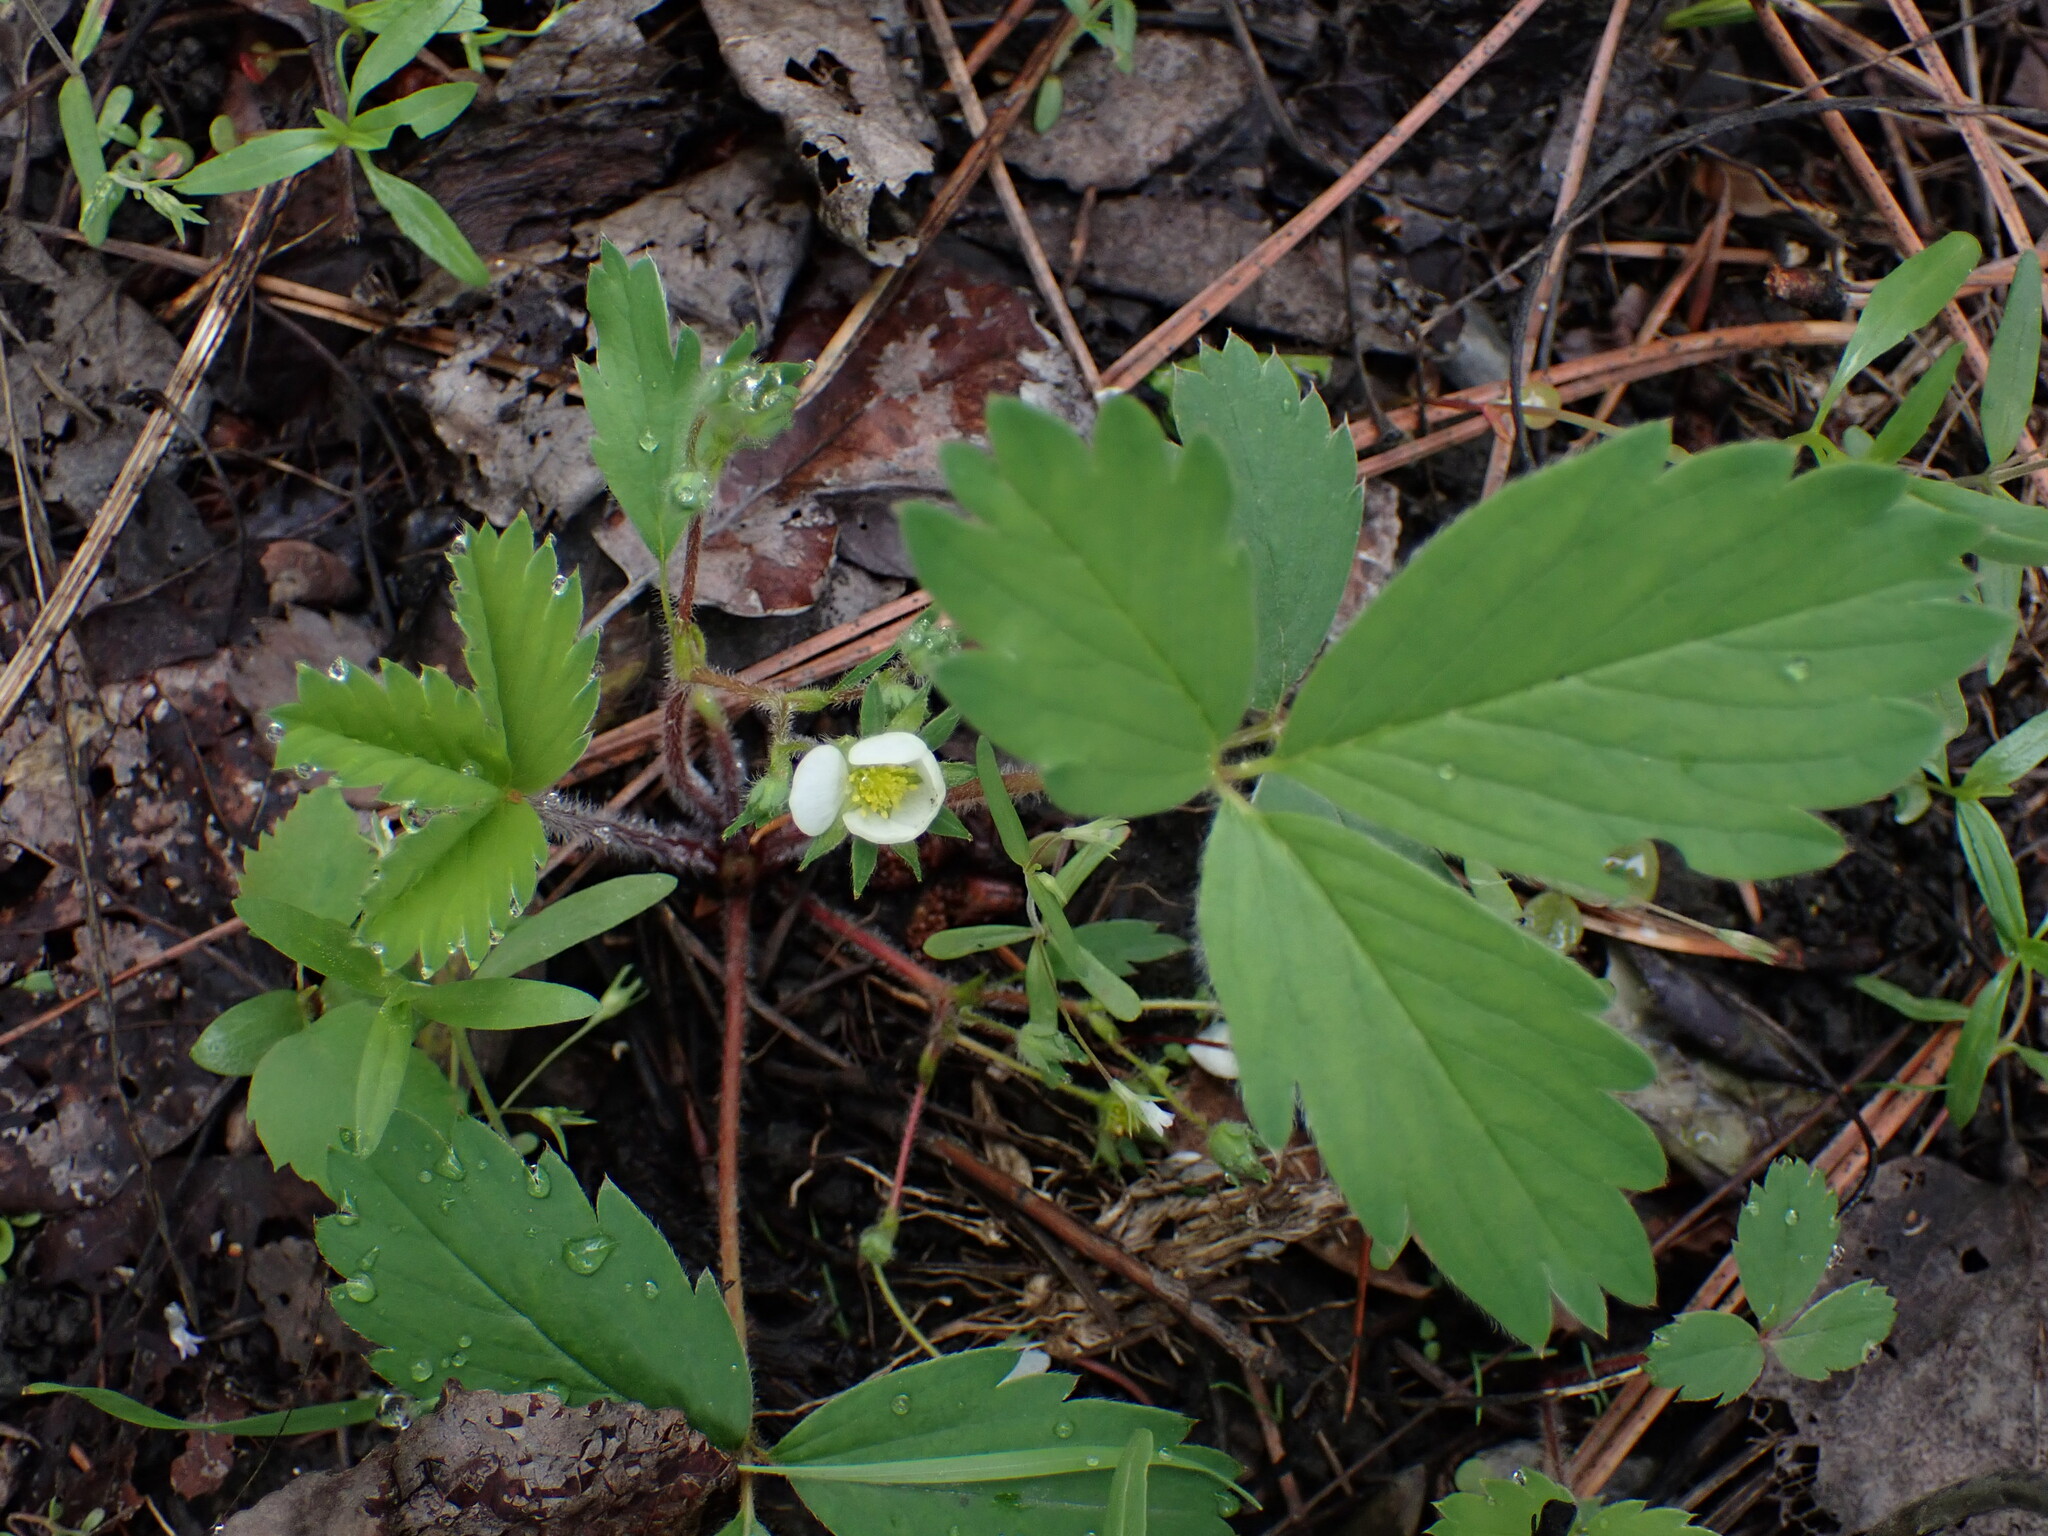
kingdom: Plantae
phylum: Tracheophyta
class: Magnoliopsida
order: Rosales
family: Rosaceae
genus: Fragaria
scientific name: Fragaria virginiana
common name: Thickleaved wild strawberry
